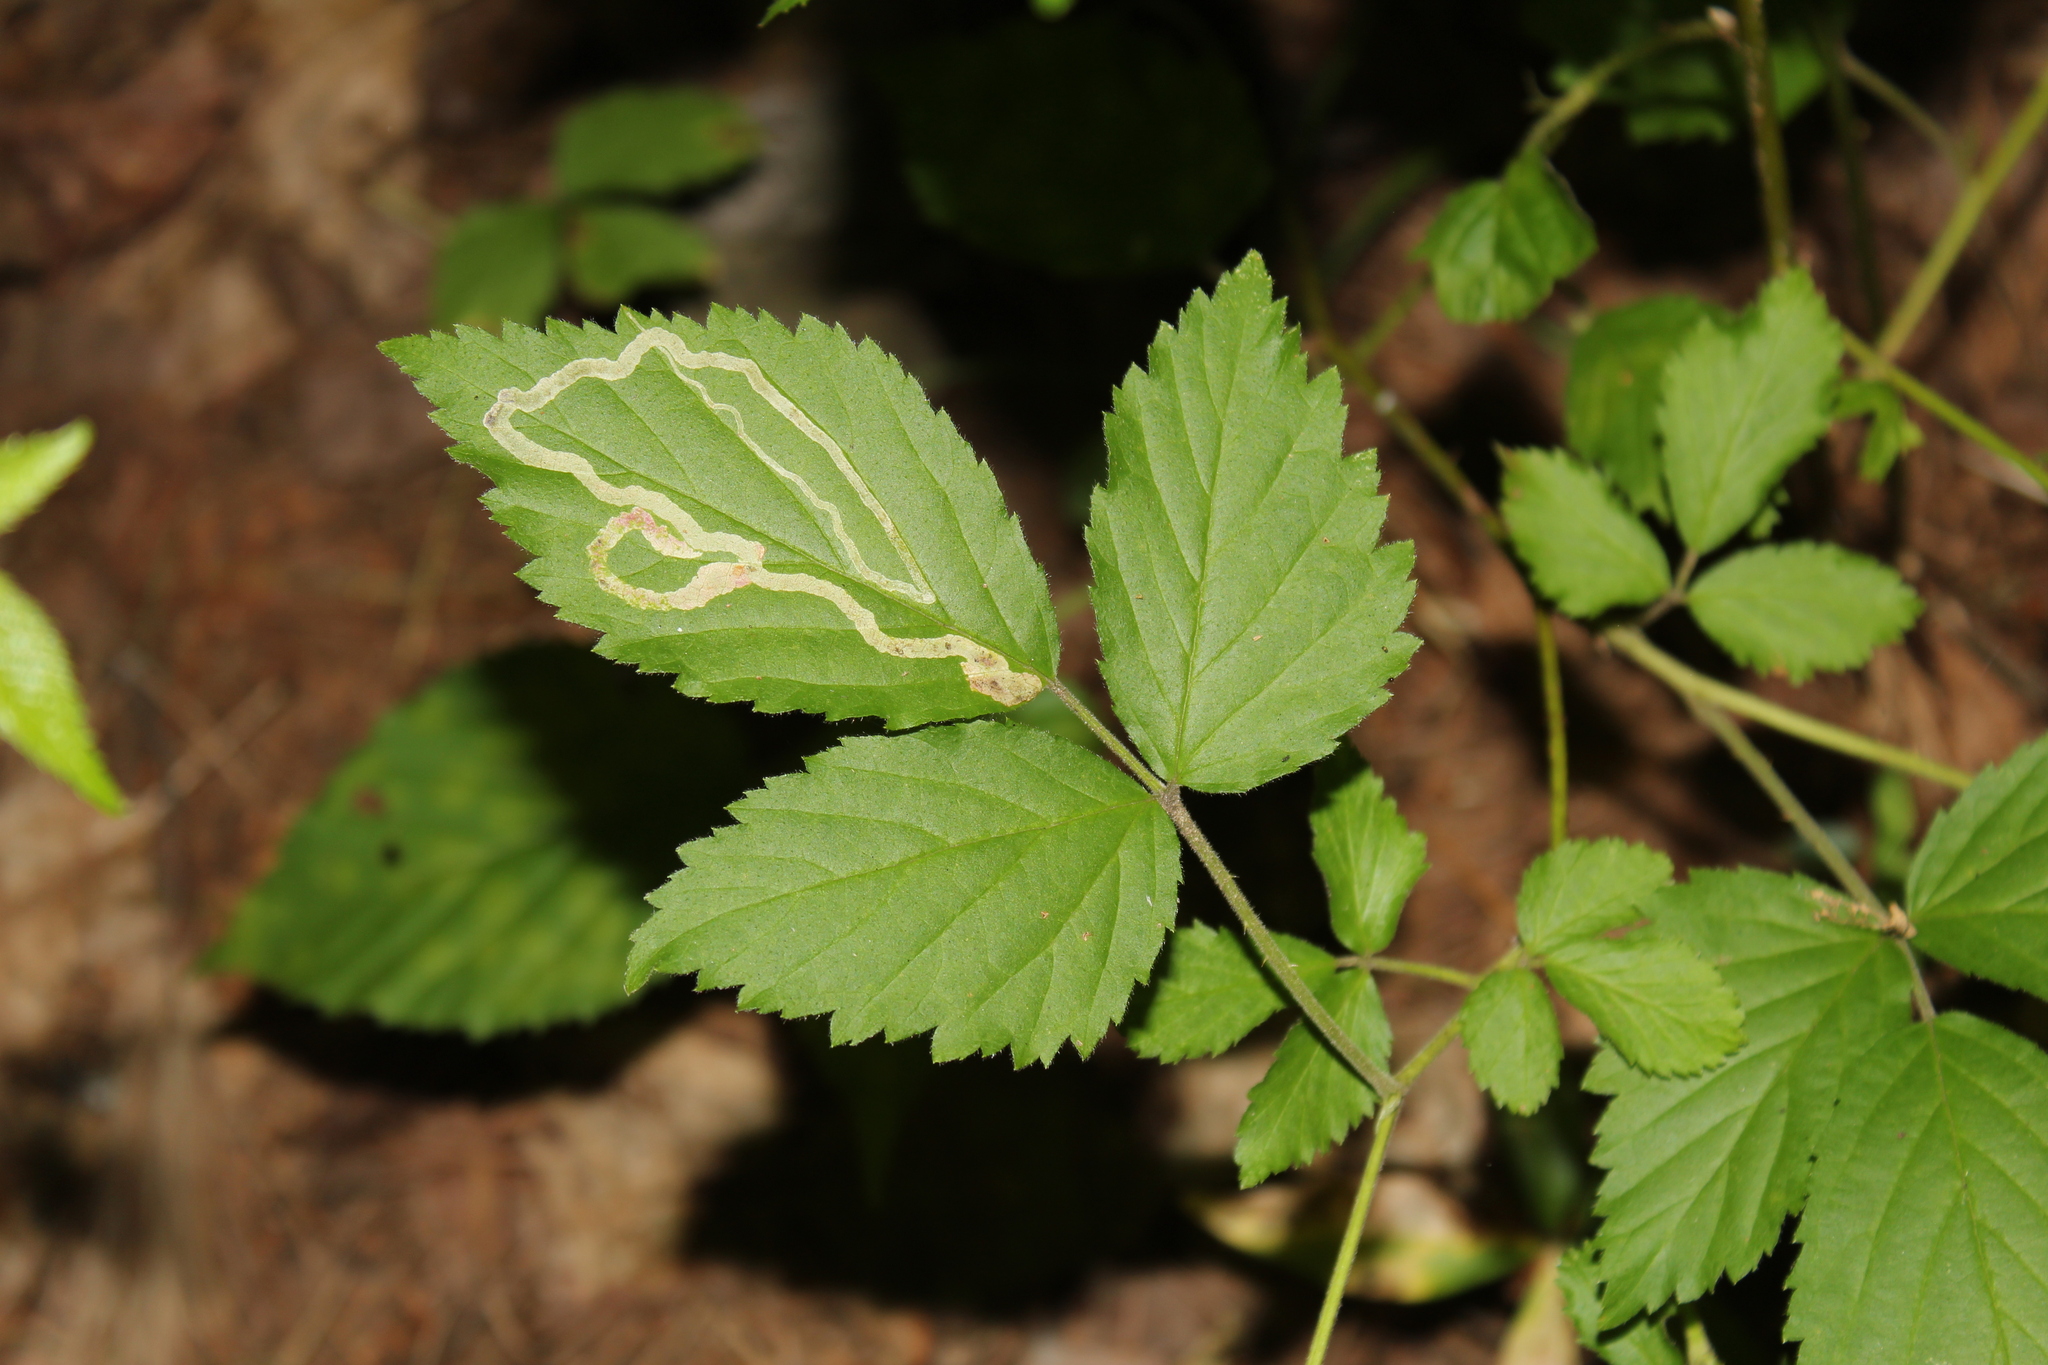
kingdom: Animalia
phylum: Arthropoda
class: Insecta
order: Diptera
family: Agromyzidae
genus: Agromyza
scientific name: Agromyza vockerothi
